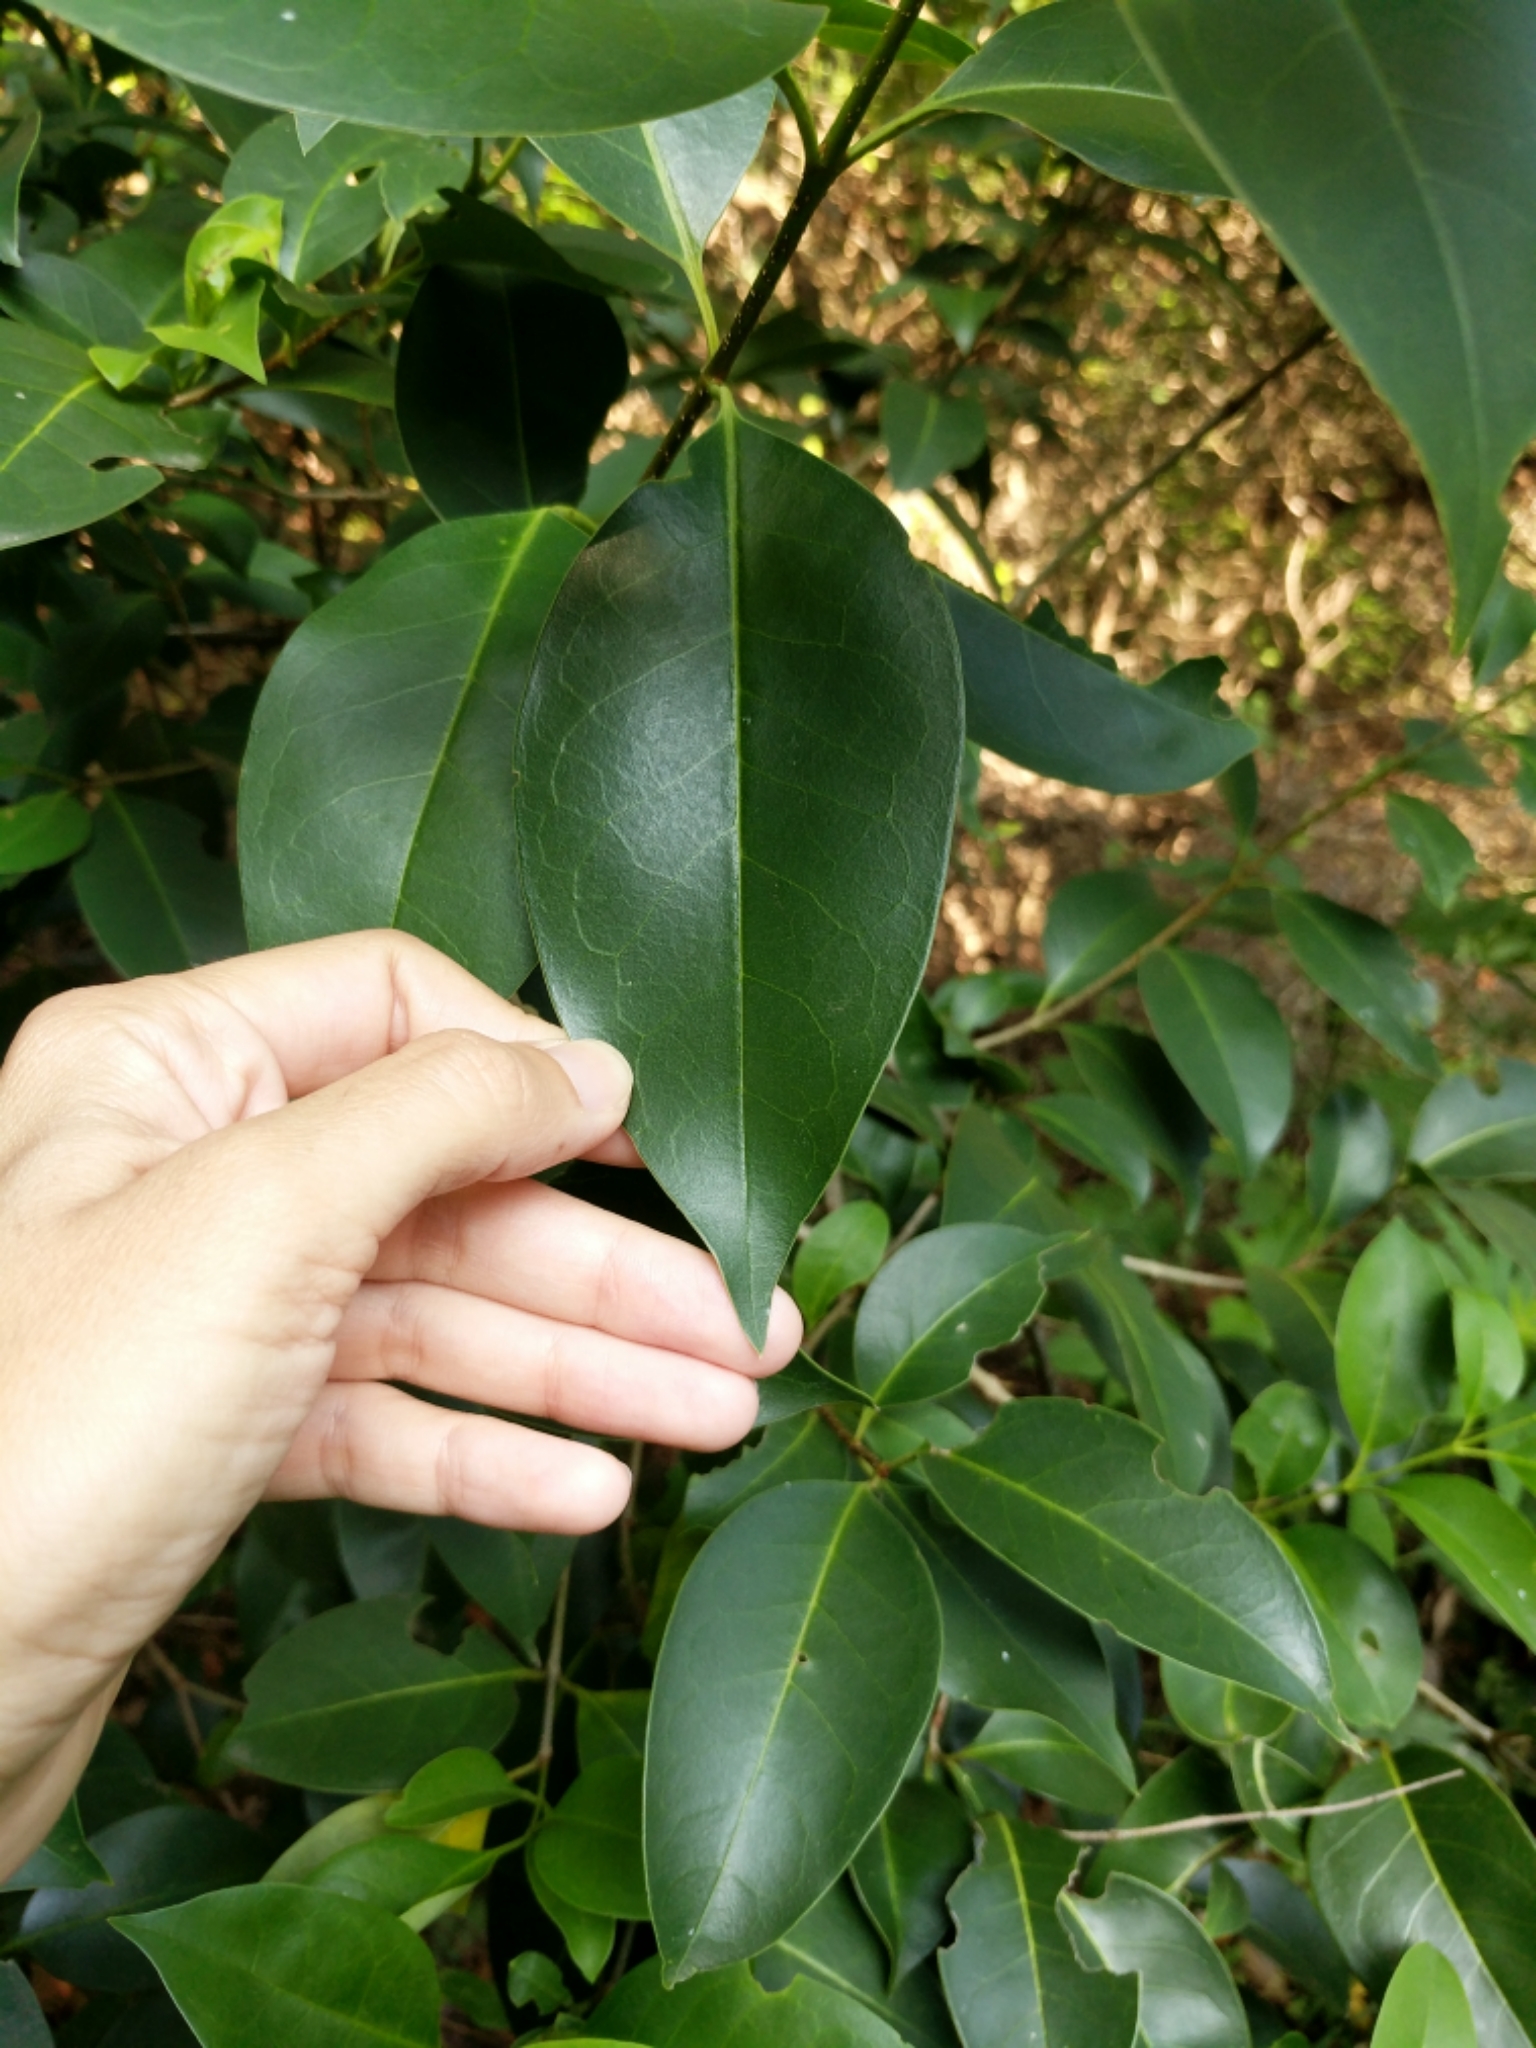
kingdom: Plantae
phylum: Tracheophyta
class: Magnoliopsida
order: Lamiales
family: Oleaceae
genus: Ligustrum
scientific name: Ligustrum lucidum
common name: Glossy privet
